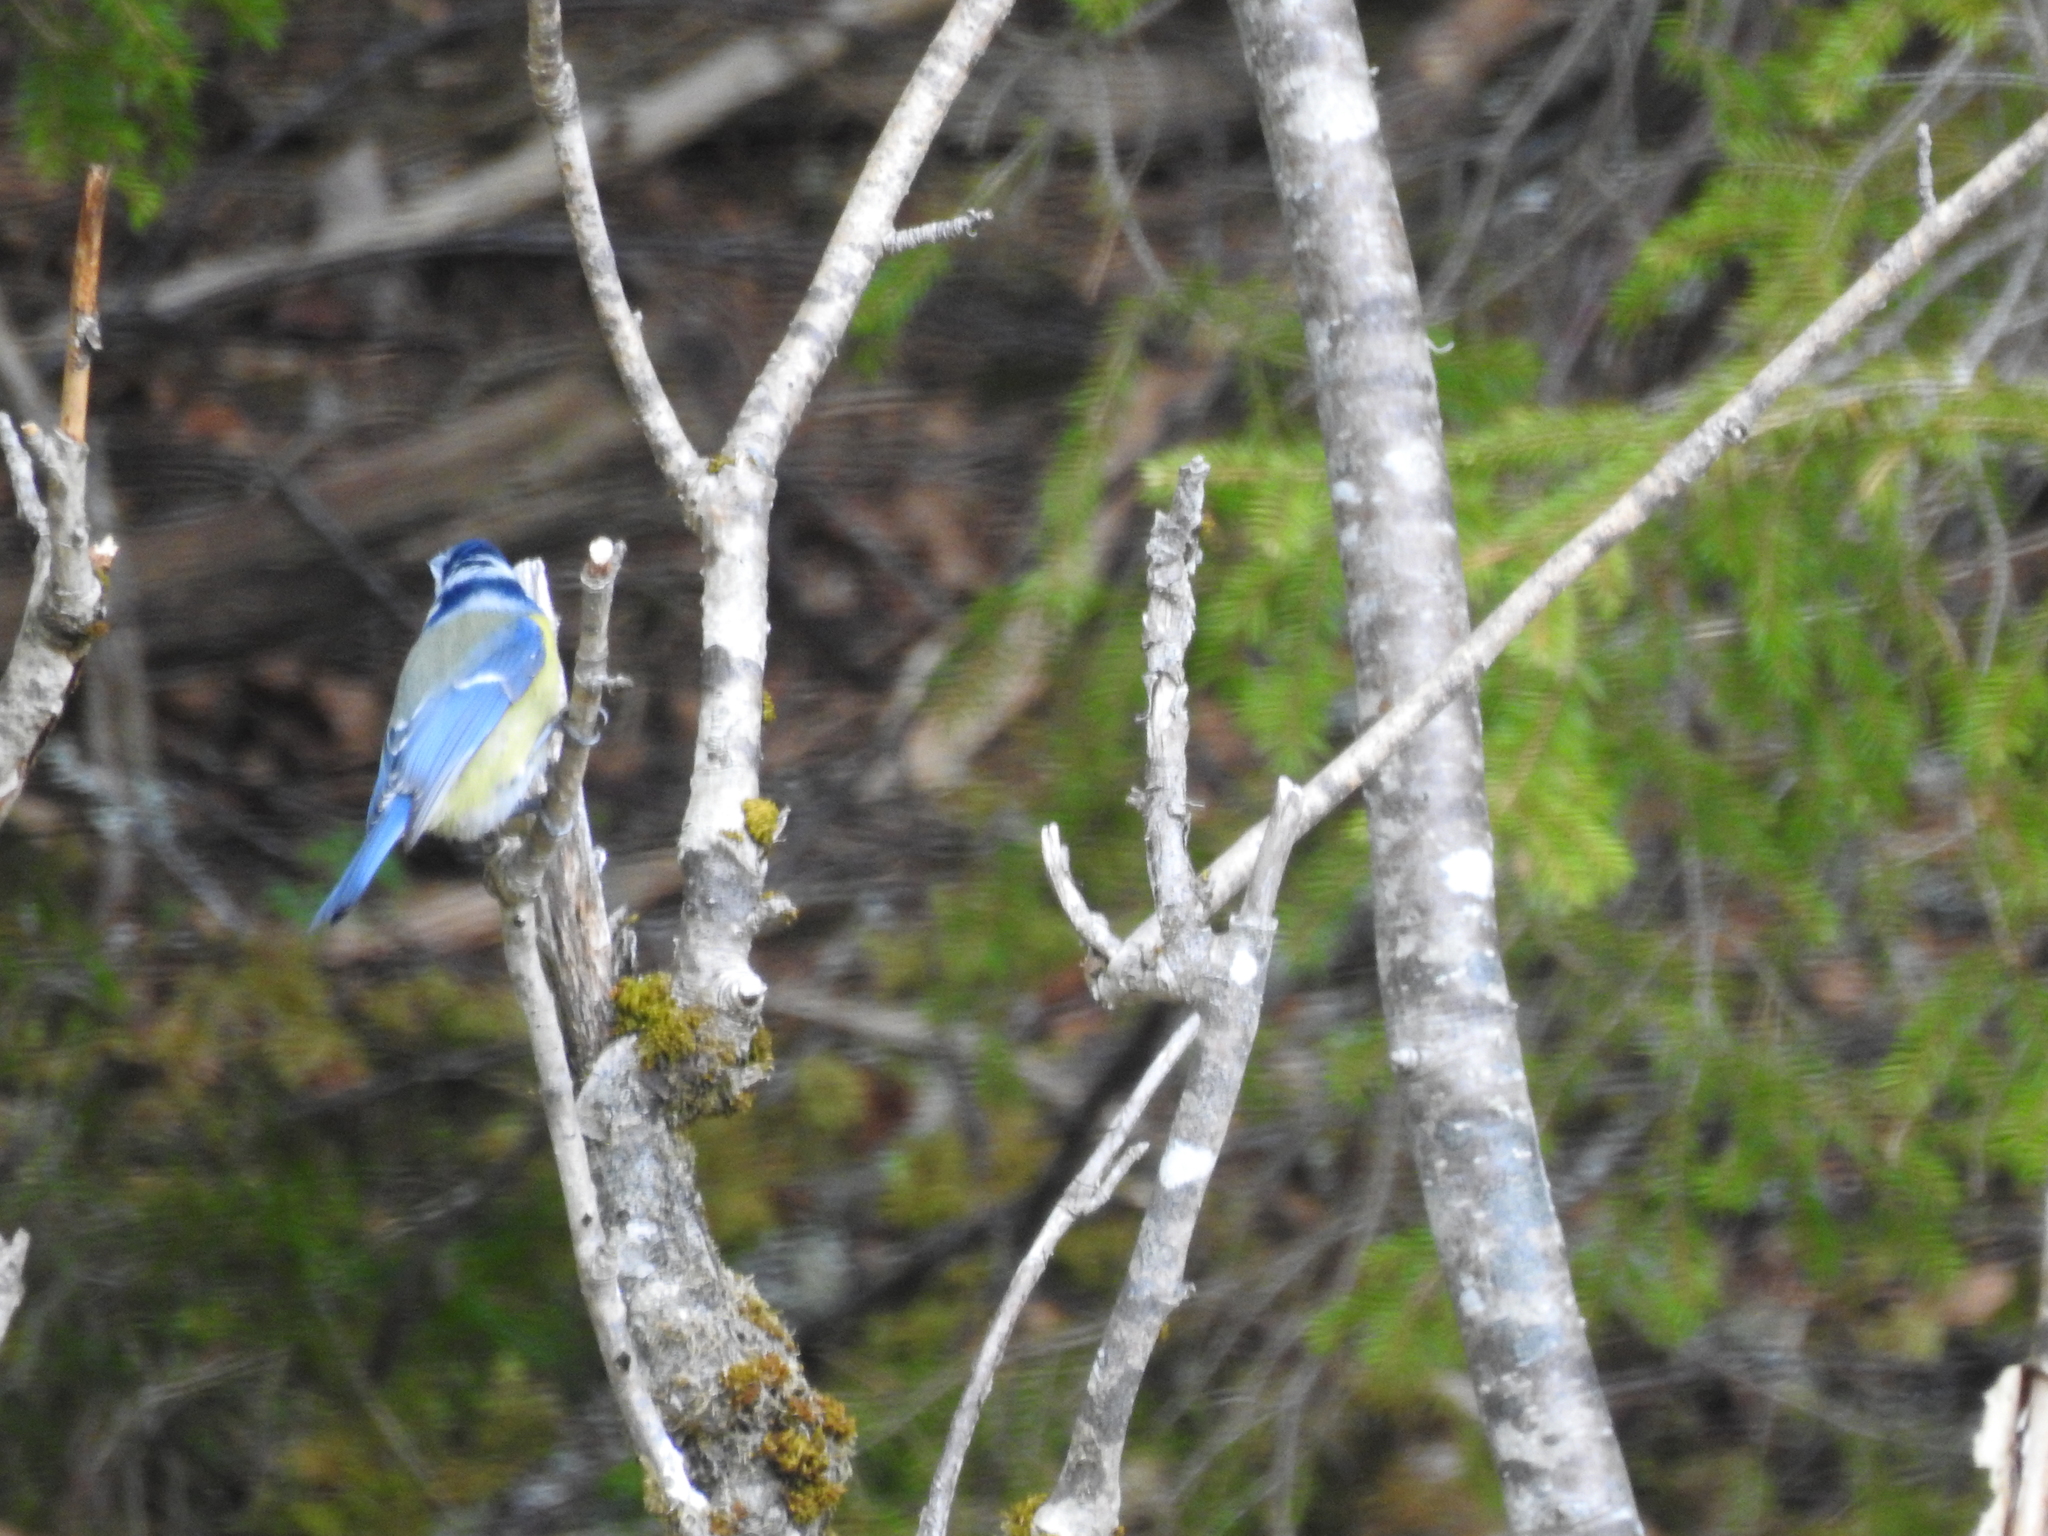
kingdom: Animalia
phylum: Chordata
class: Aves
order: Passeriformes
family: Paridae
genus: Cyanistes
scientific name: Cyanistes caeruleus
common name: Eurasian blue tit
